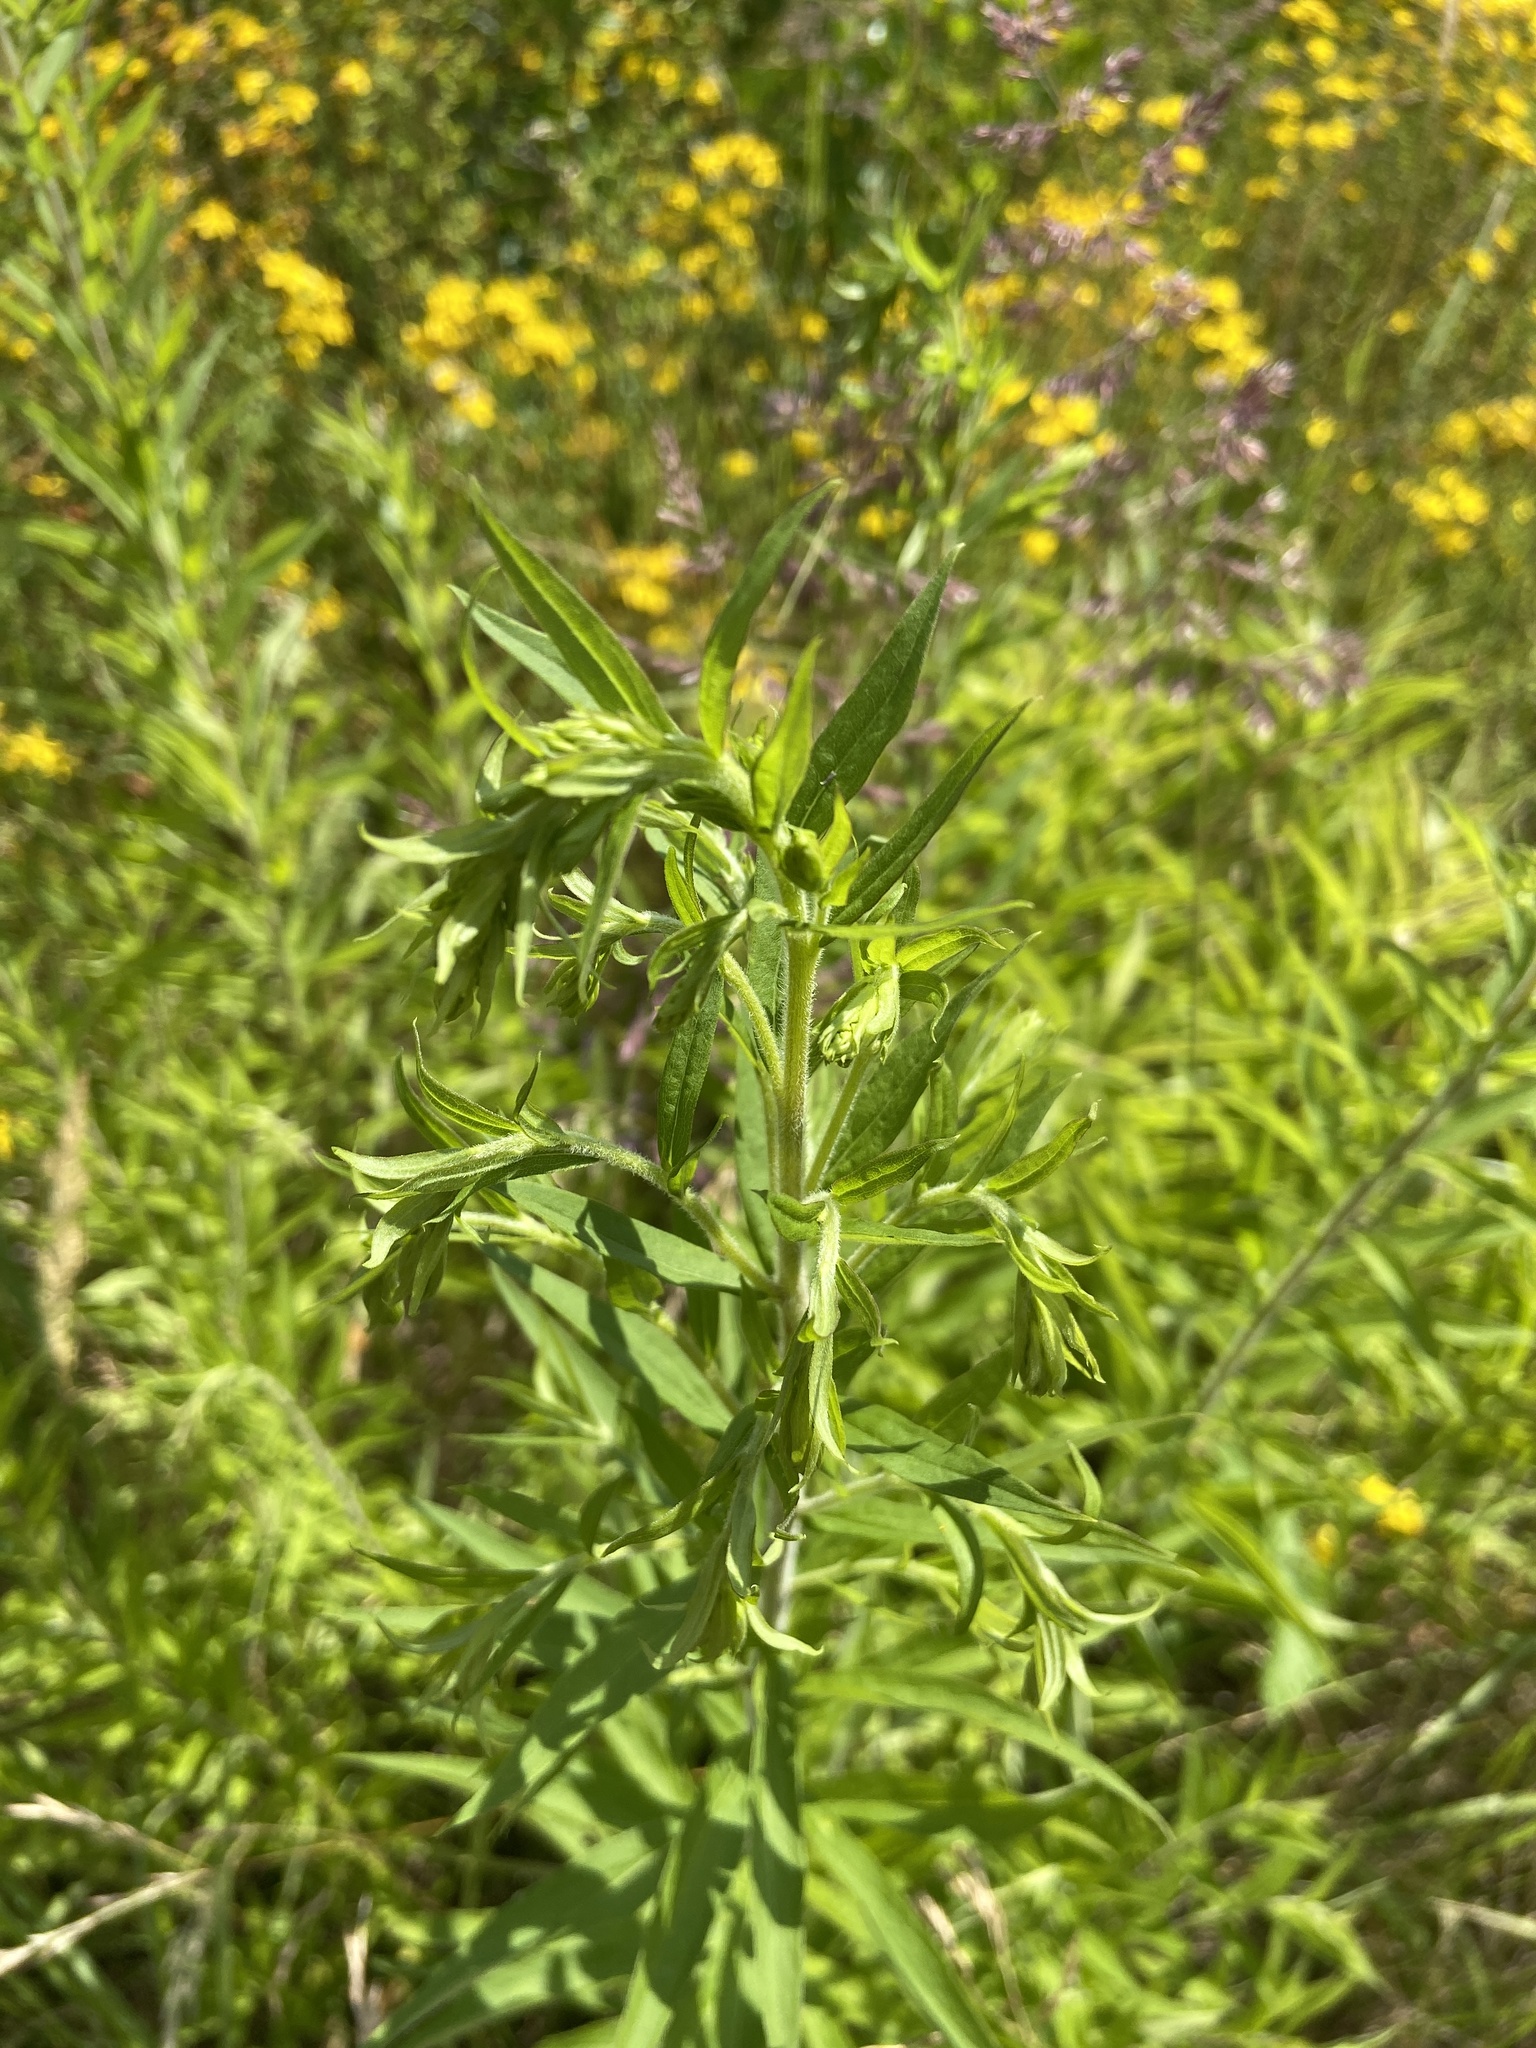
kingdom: Plantae
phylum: Tracheophyta
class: Magnoliopsida
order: Asterales
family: Asteraceae
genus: Solidago
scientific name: Solidago canadensis
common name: Canada goldenrod
